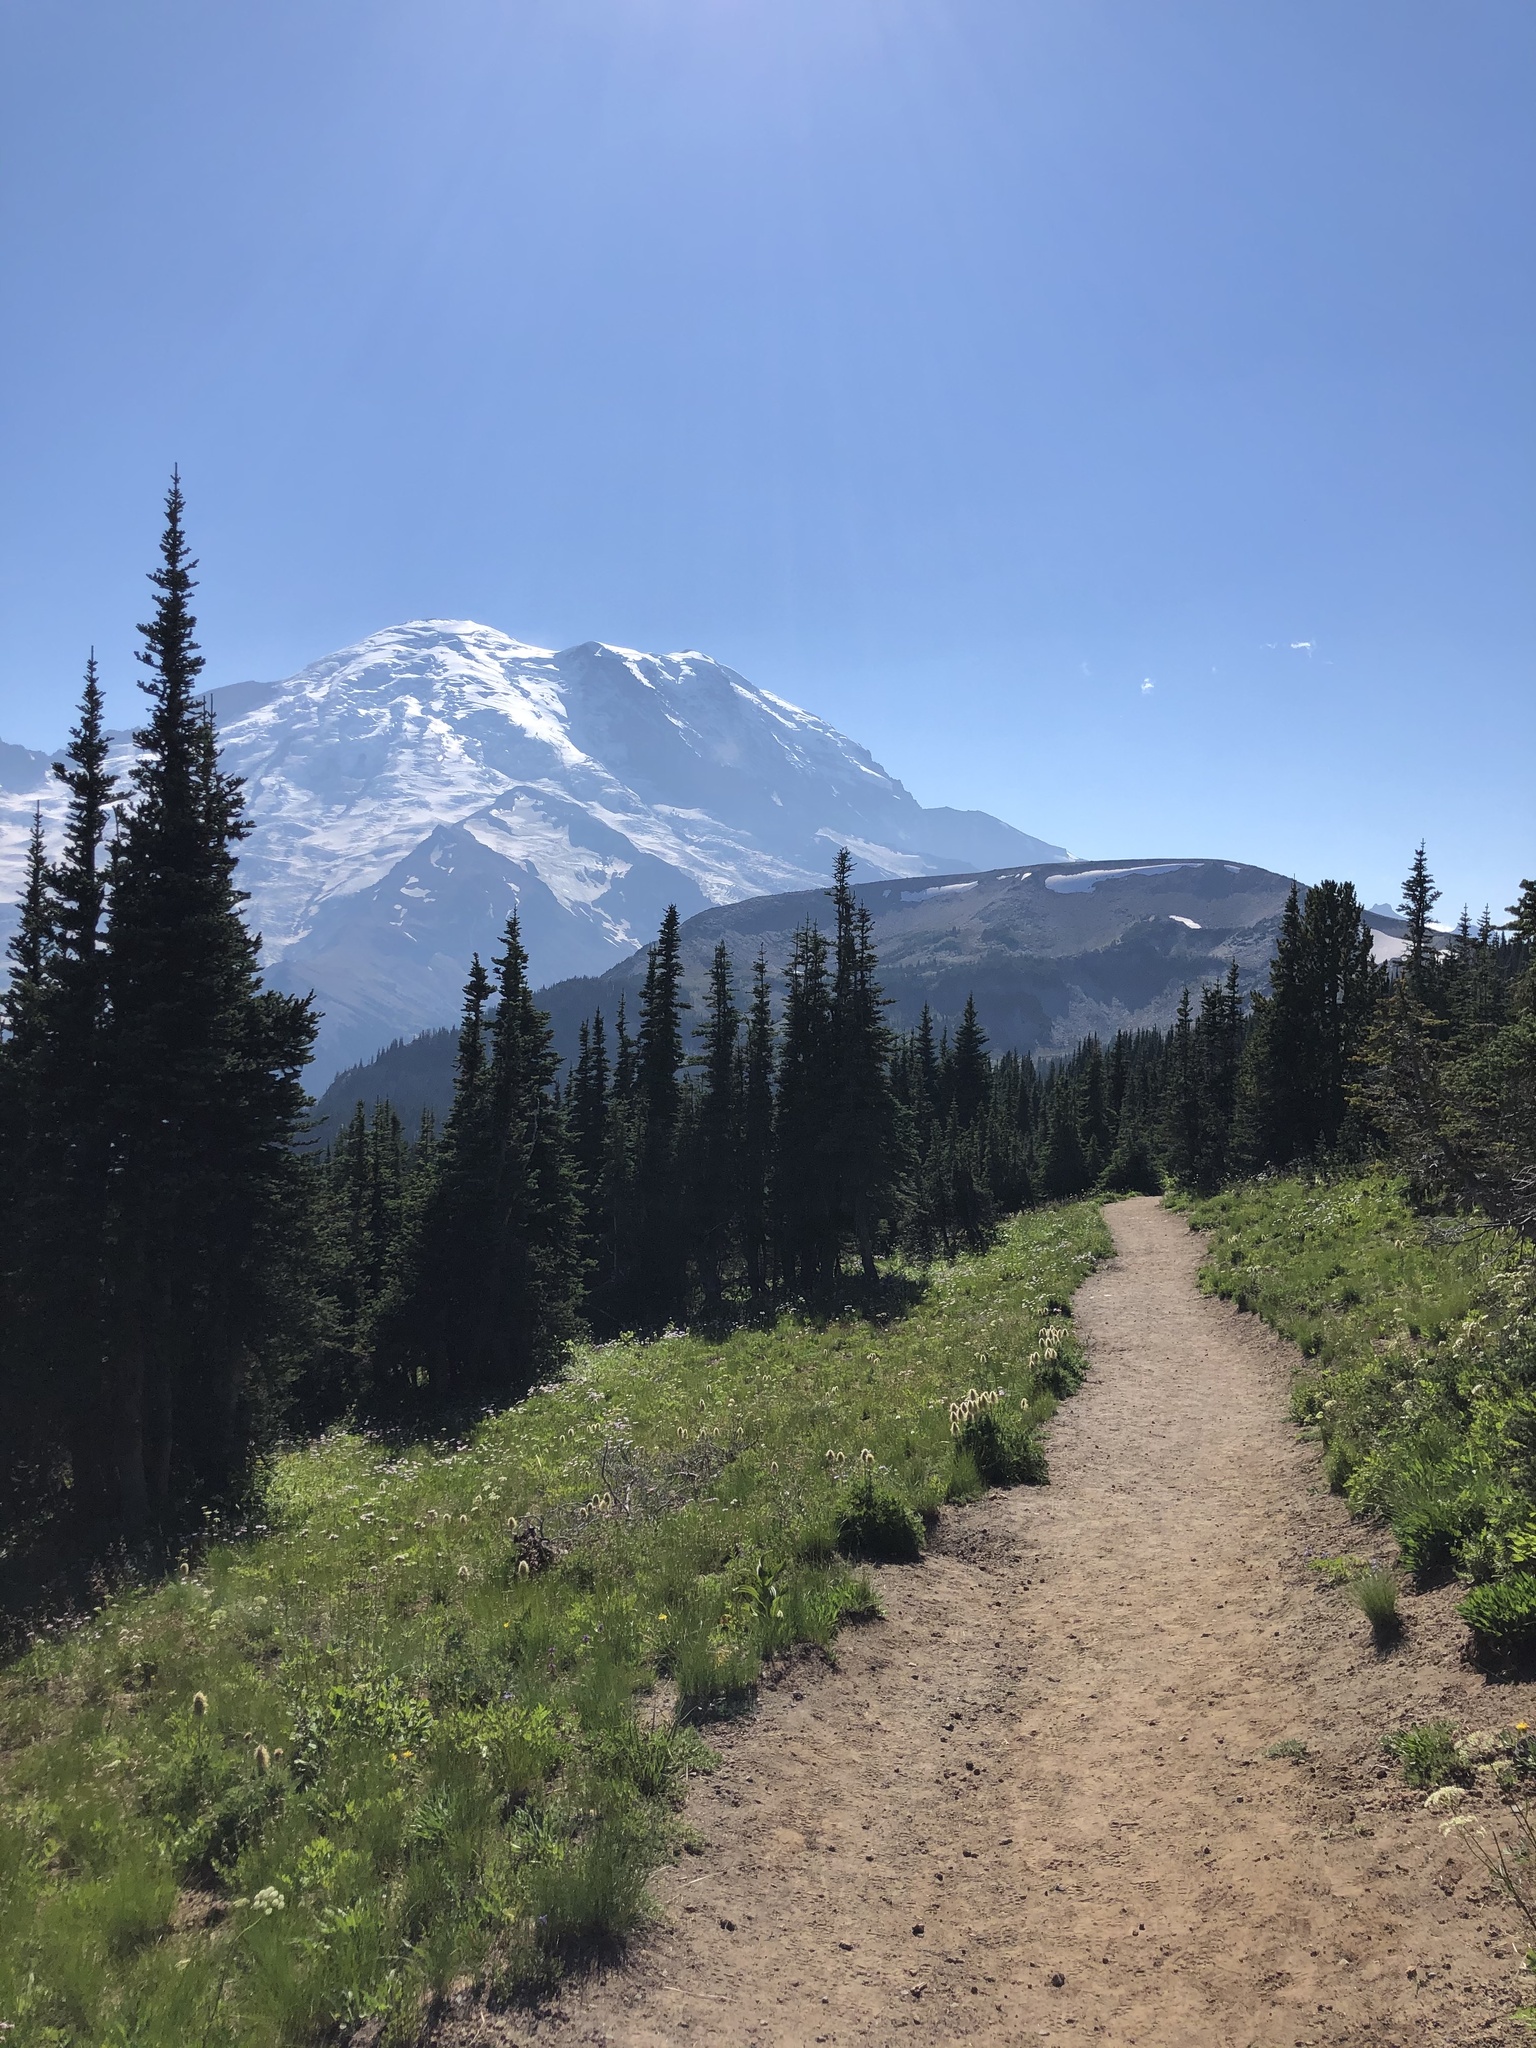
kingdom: Plantae
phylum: Tracheophyta
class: Pinopsida
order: Pinales
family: Pinaceae
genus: Abies
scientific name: Abies lasiocarpa
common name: Subalpine fir
